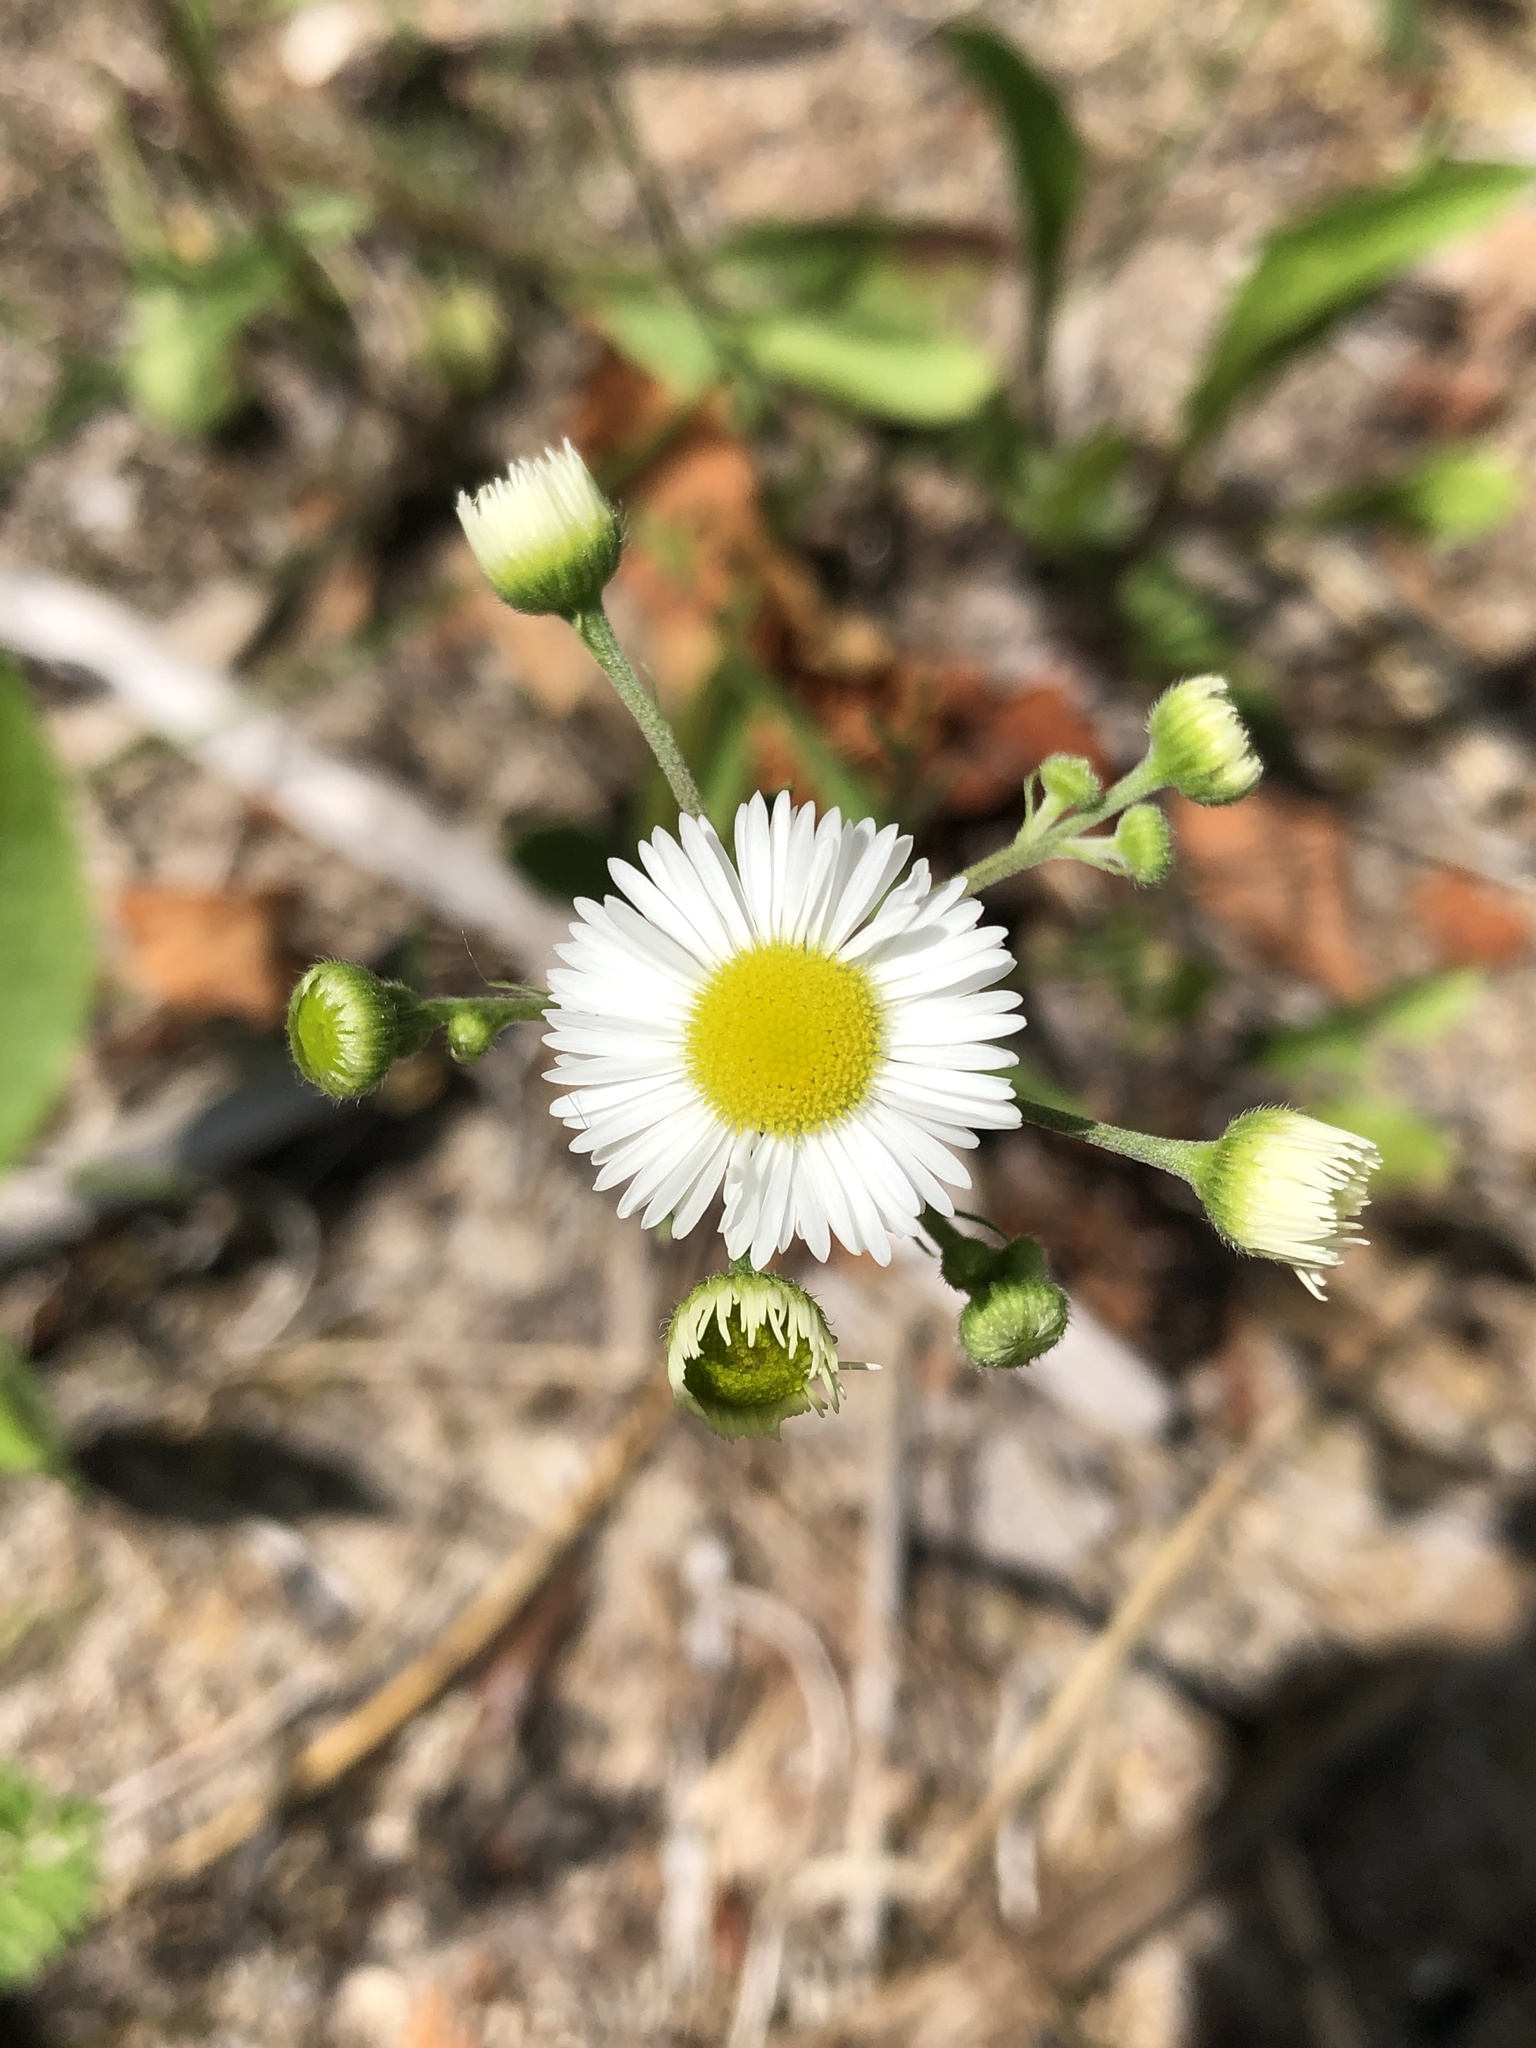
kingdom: Plantae
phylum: Tracheophyta
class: Magnoliopsida
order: Asterales
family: Asteraceae
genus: Erigeron
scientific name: Erigeron strigosus
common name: Common eastern fleabane
